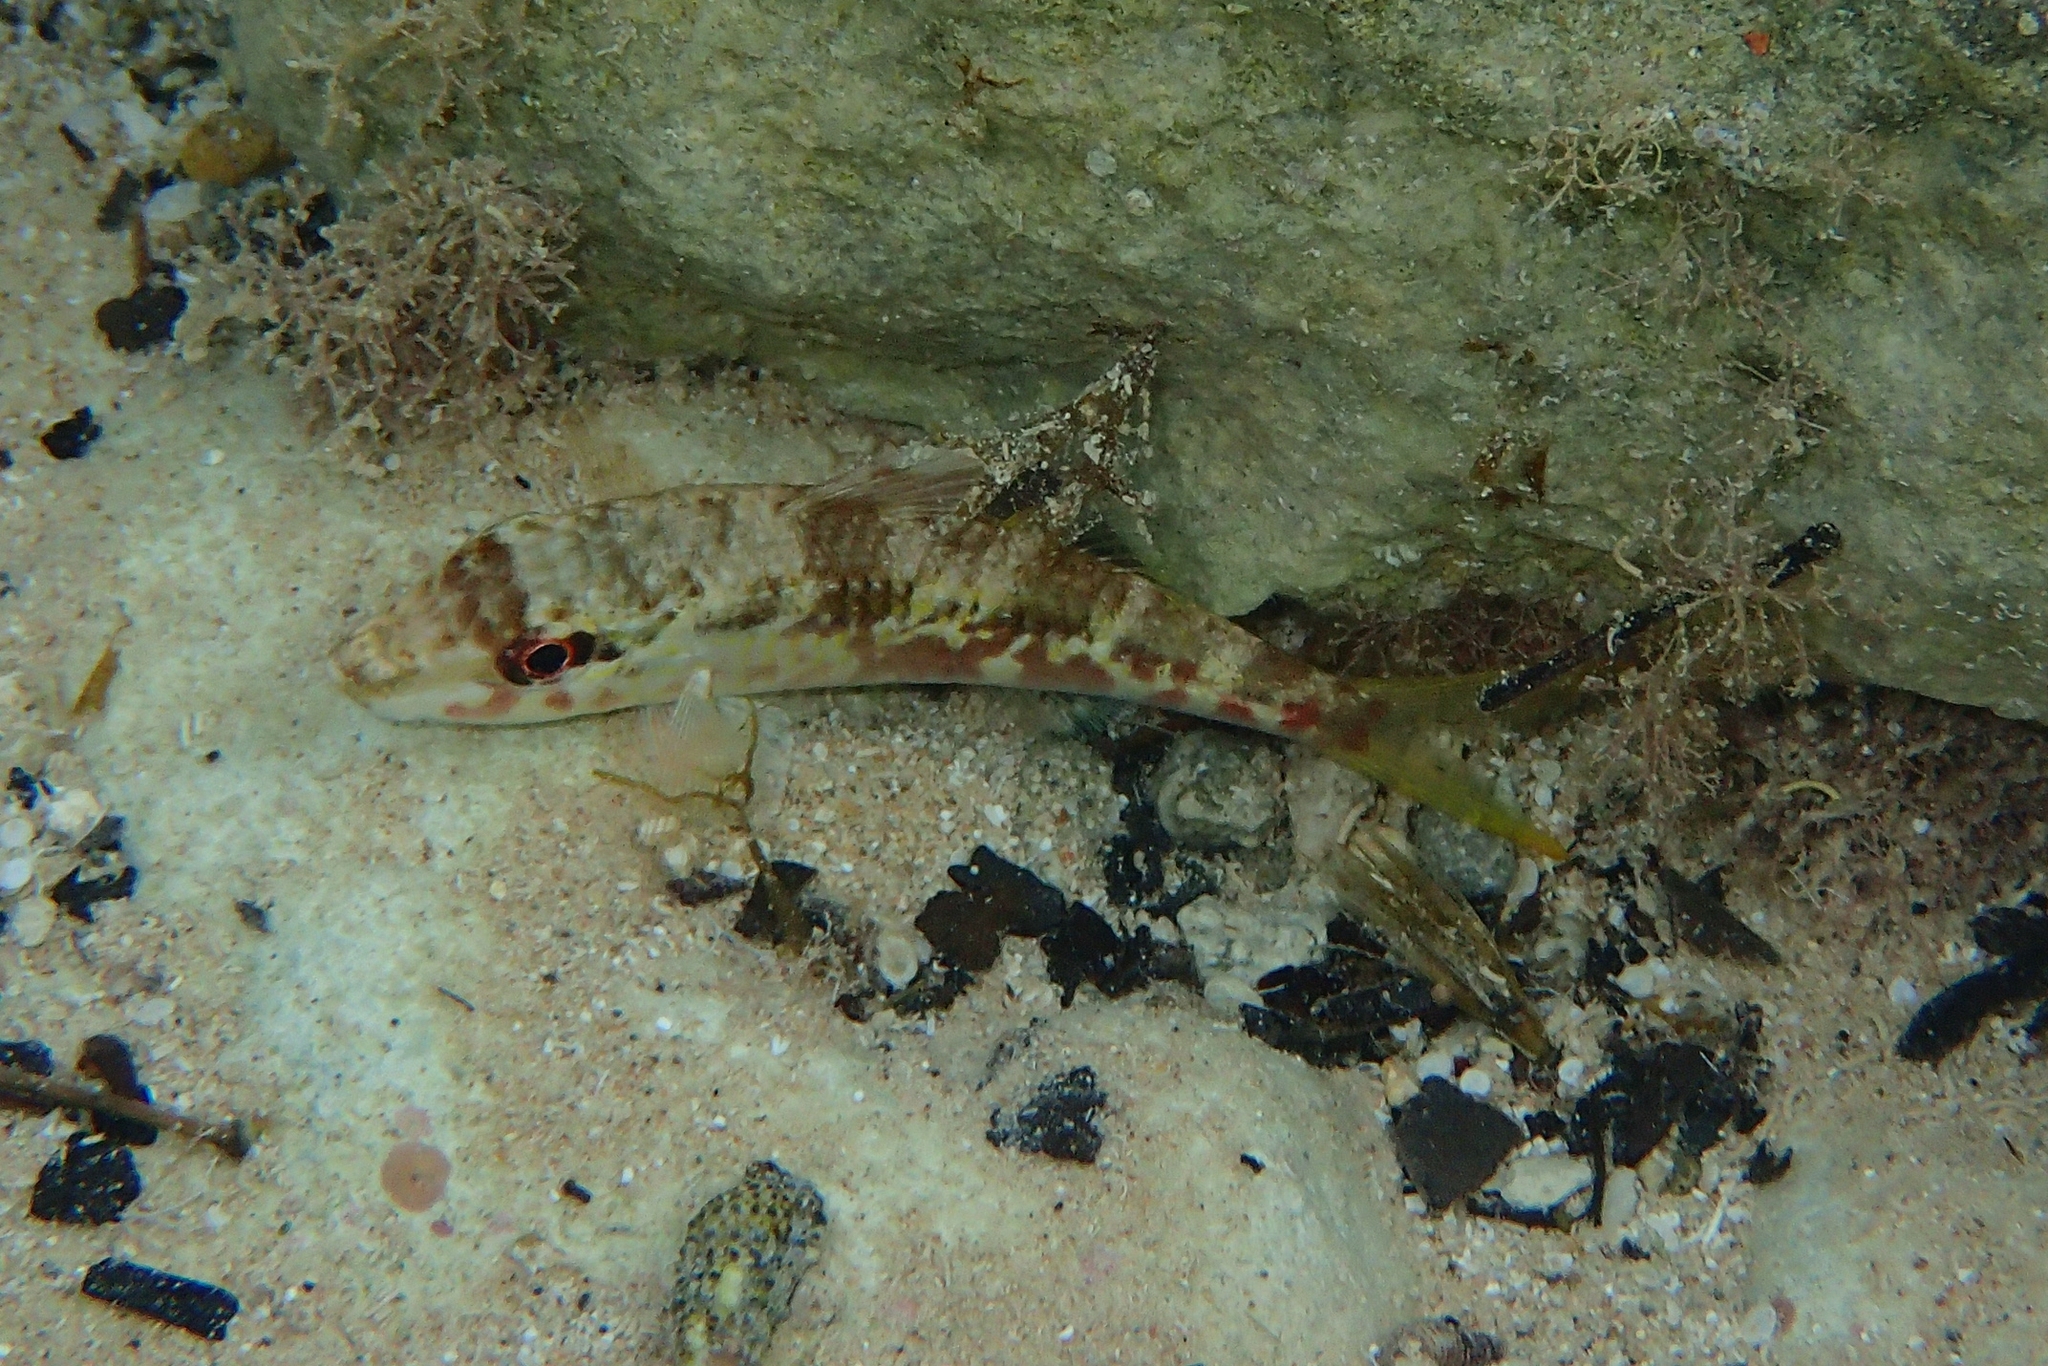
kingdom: Animalia
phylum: Chordata
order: Perciformes
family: Mullidae
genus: Parupeneus
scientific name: Parupeneus forsskali
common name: Red sea goatfish
